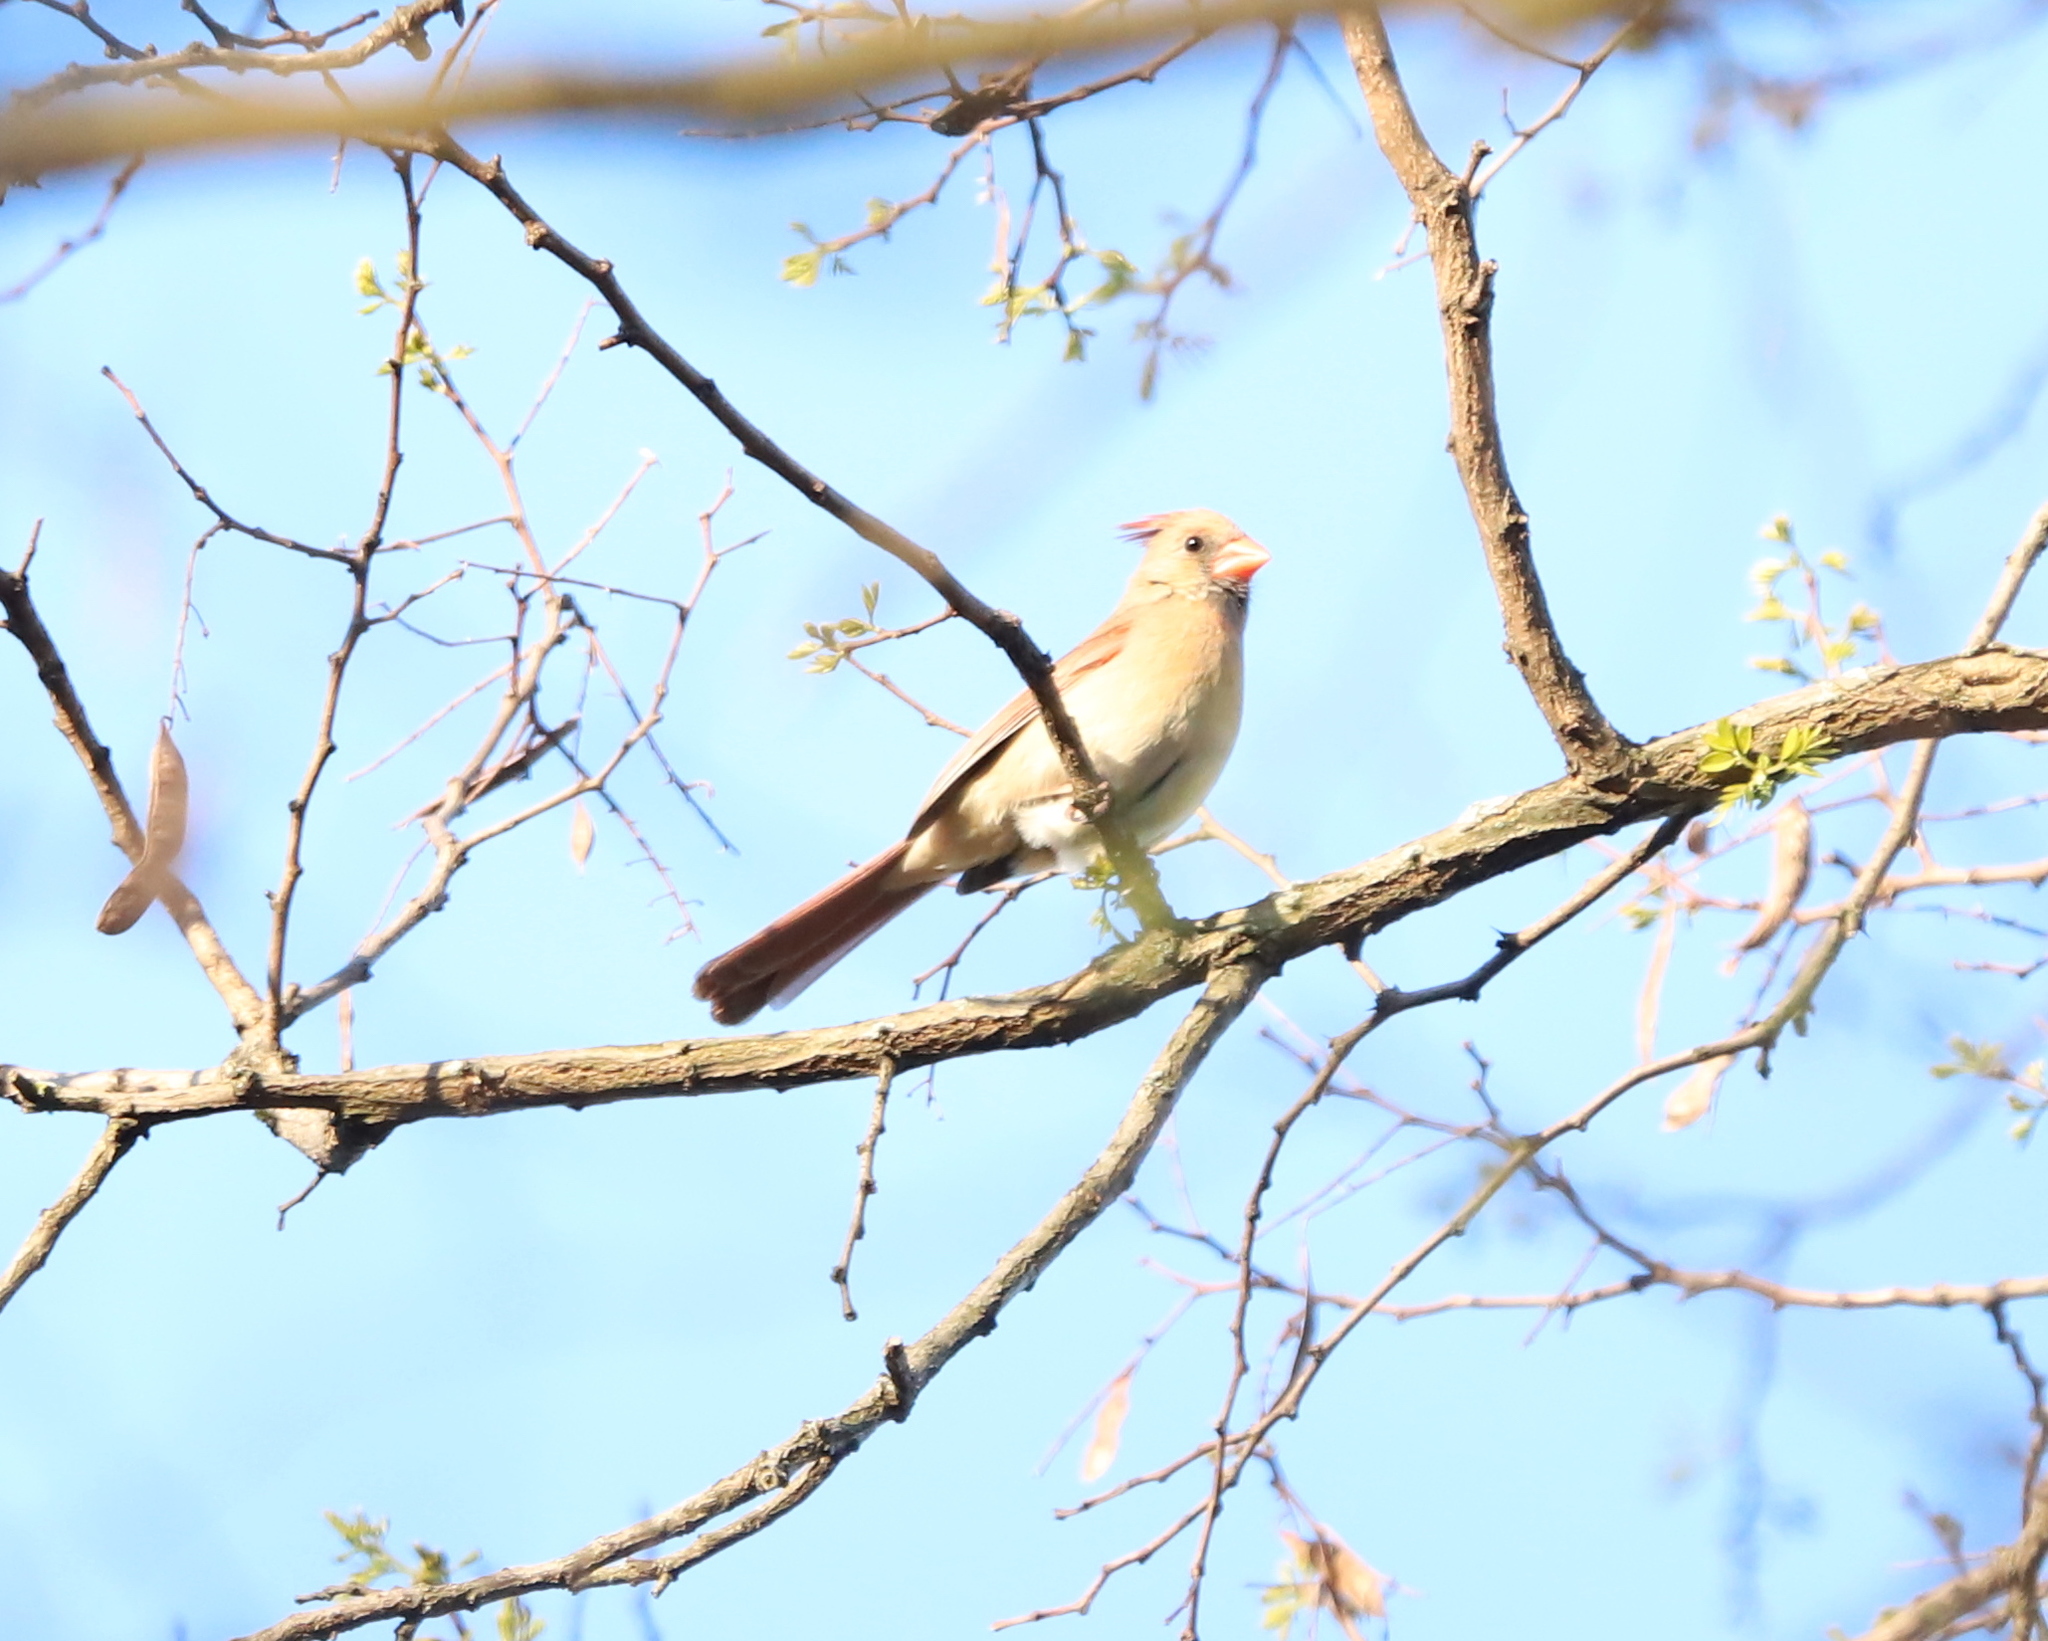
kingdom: Animalia
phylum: Chordata
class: Aves
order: Passeriformes
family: Cardinalidae
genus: Cardinalis
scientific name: Cardinalis cardinalis
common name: Northern cardinal
